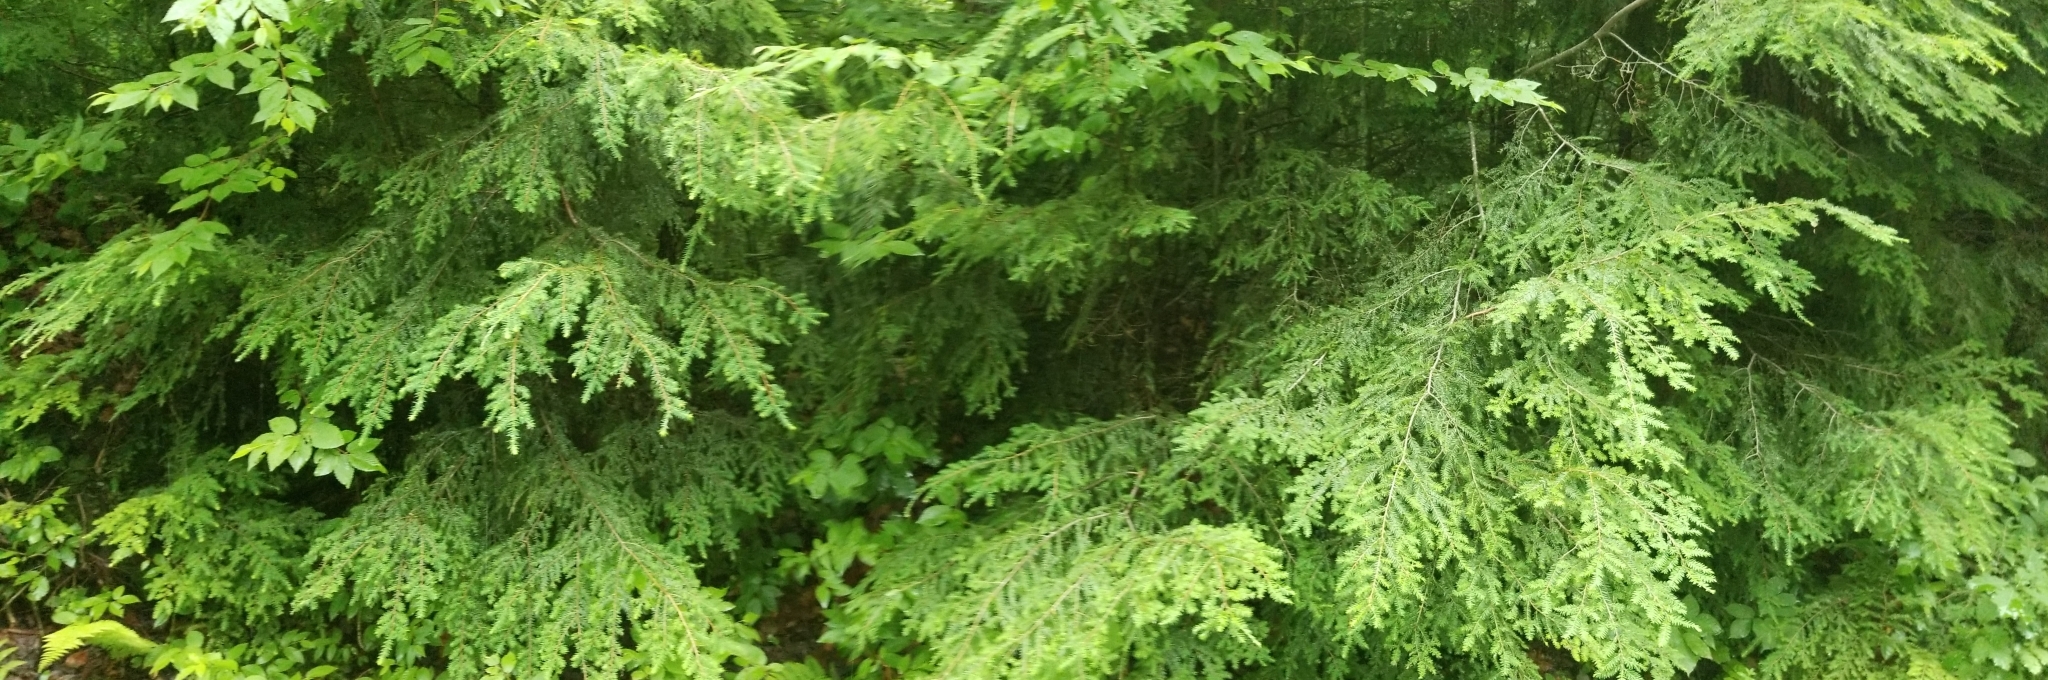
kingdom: Plantae
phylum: Tracheophyta
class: Pinopsida
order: Pinales
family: Pinaceae
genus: Tsuga
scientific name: Tsuga canadensis
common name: Eastern hemlock
